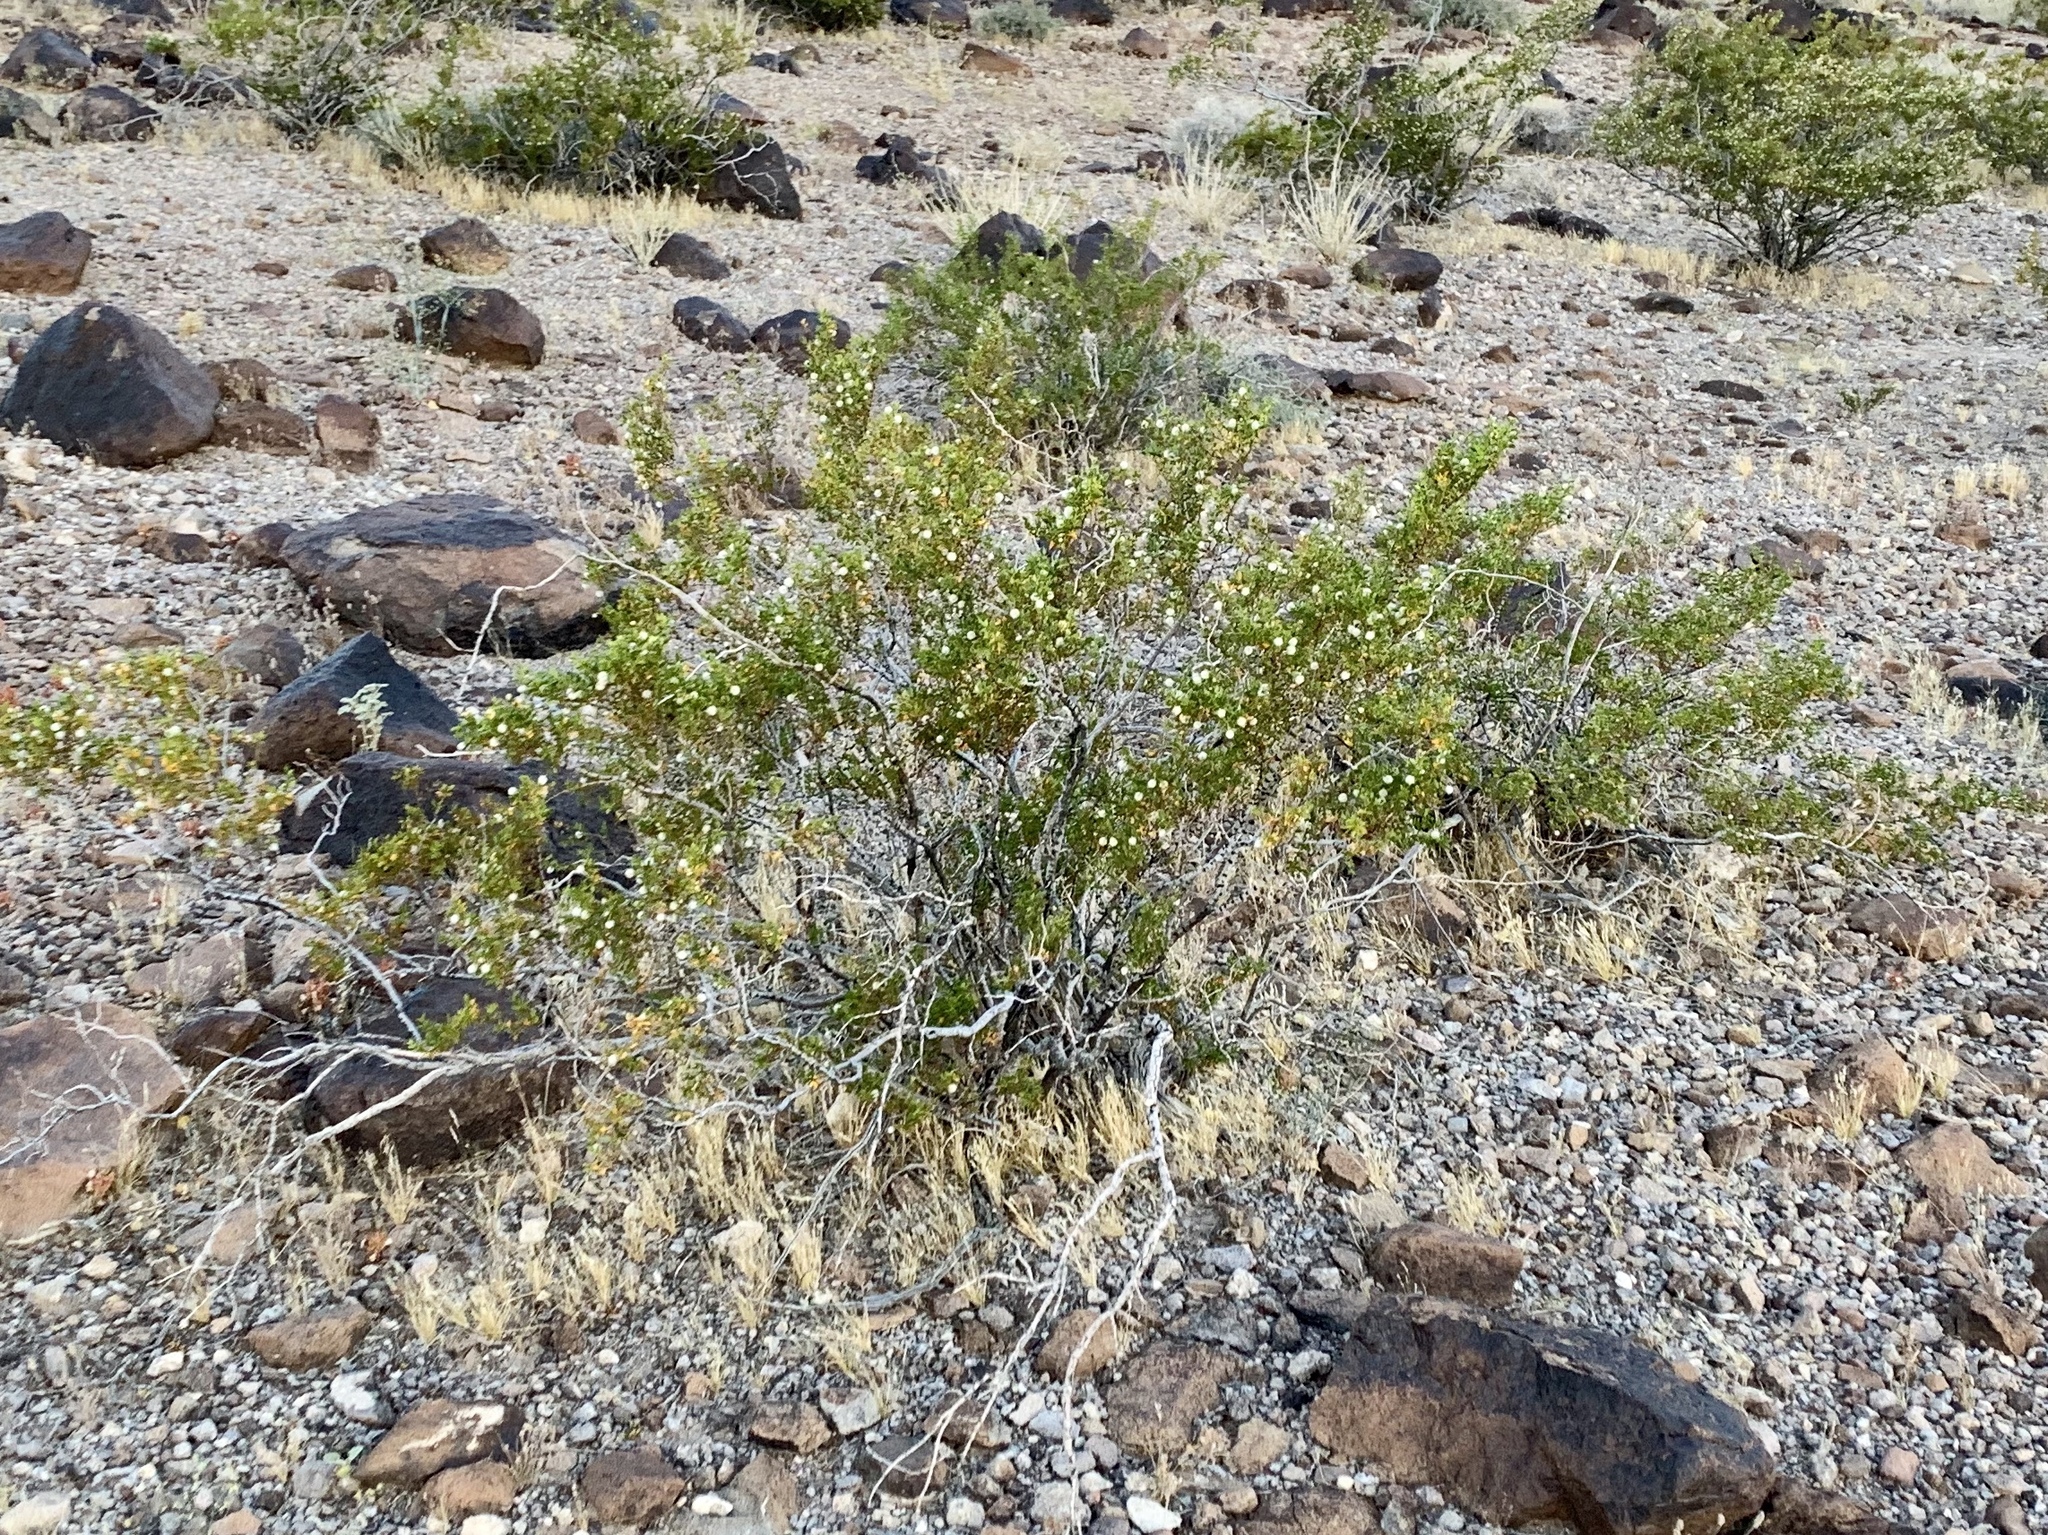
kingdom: Plantae
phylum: Tracheophyta
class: Magnoliopsida
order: Zygophyllales
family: Zygophyllaceae
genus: Larrea
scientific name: Larrea tridentata
